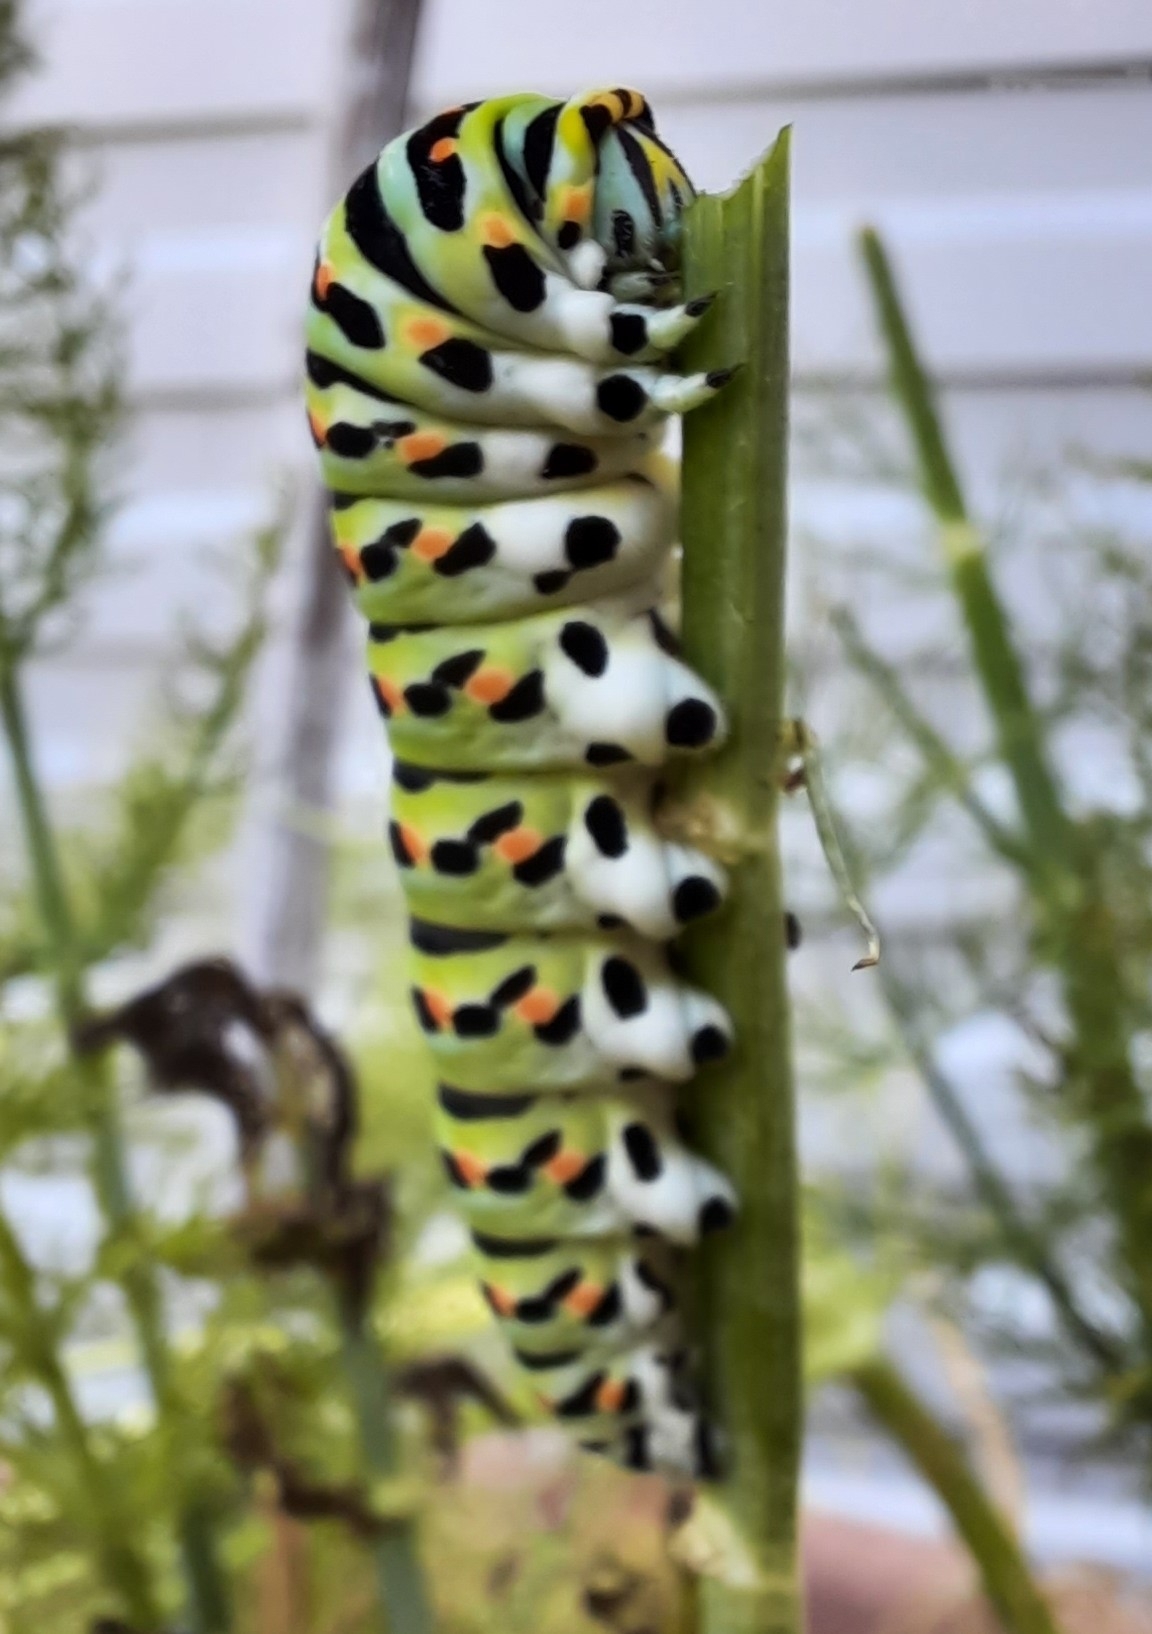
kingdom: Animalia
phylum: Arthropoda
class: Insecta
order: Lepidoptera
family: Papilionidae
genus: Papilio
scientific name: Papilio machaon
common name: Swallowtail
